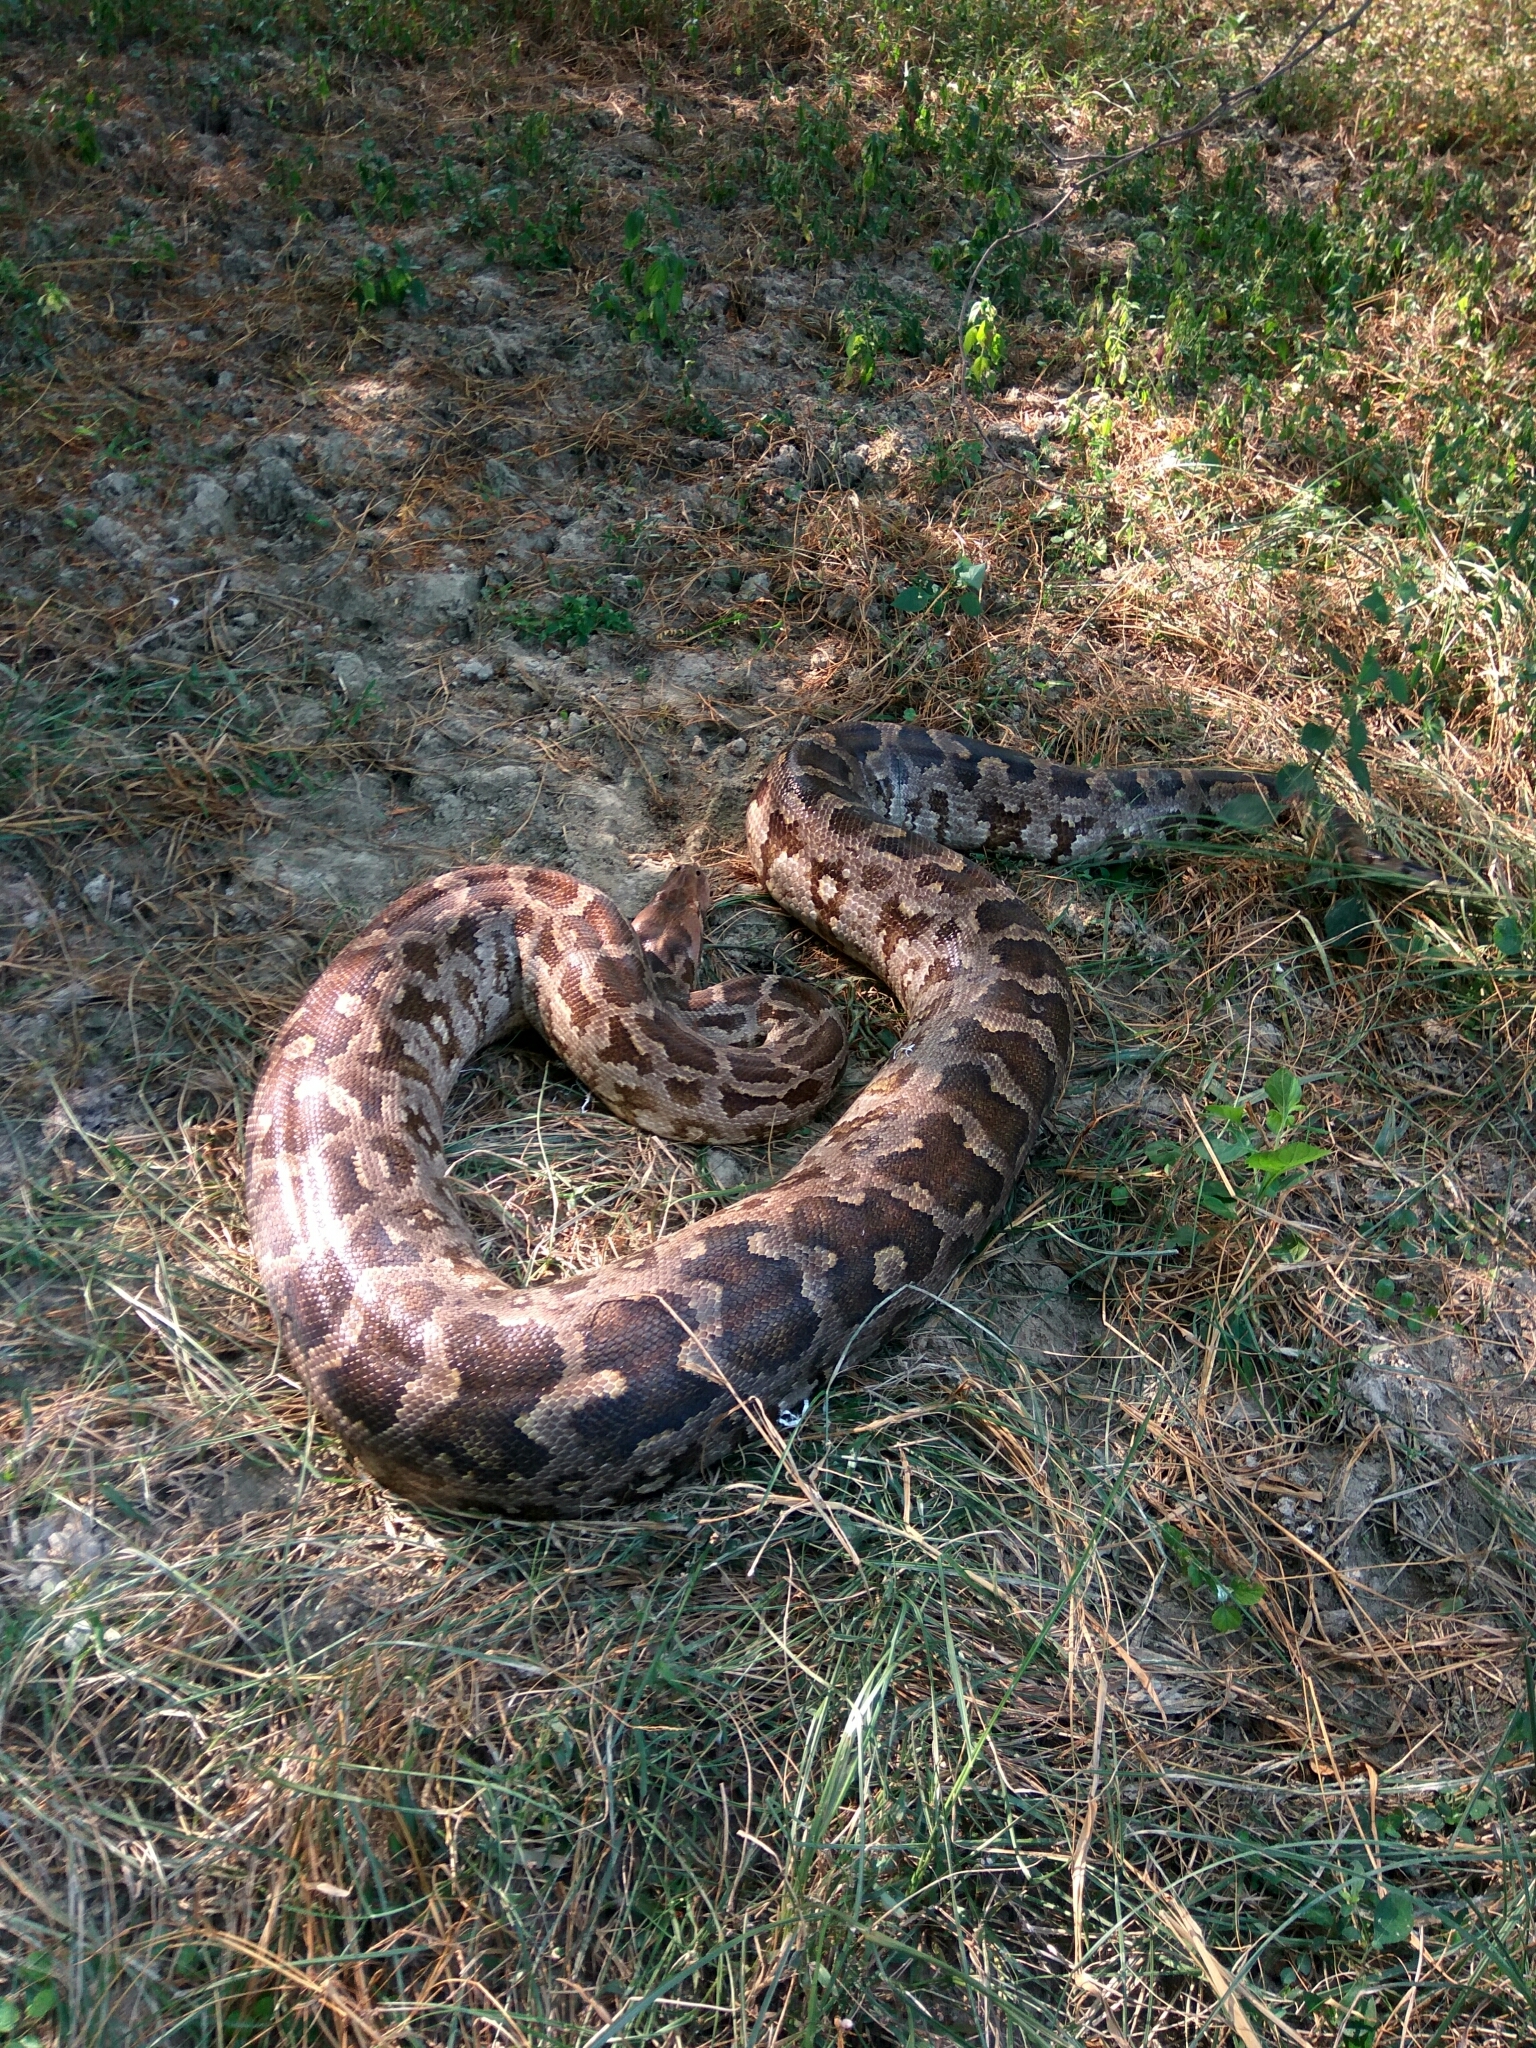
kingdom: Animalia
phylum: Chordata
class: Squamata
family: Pythonidae
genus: Python
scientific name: Python molurus
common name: Indian rock python
